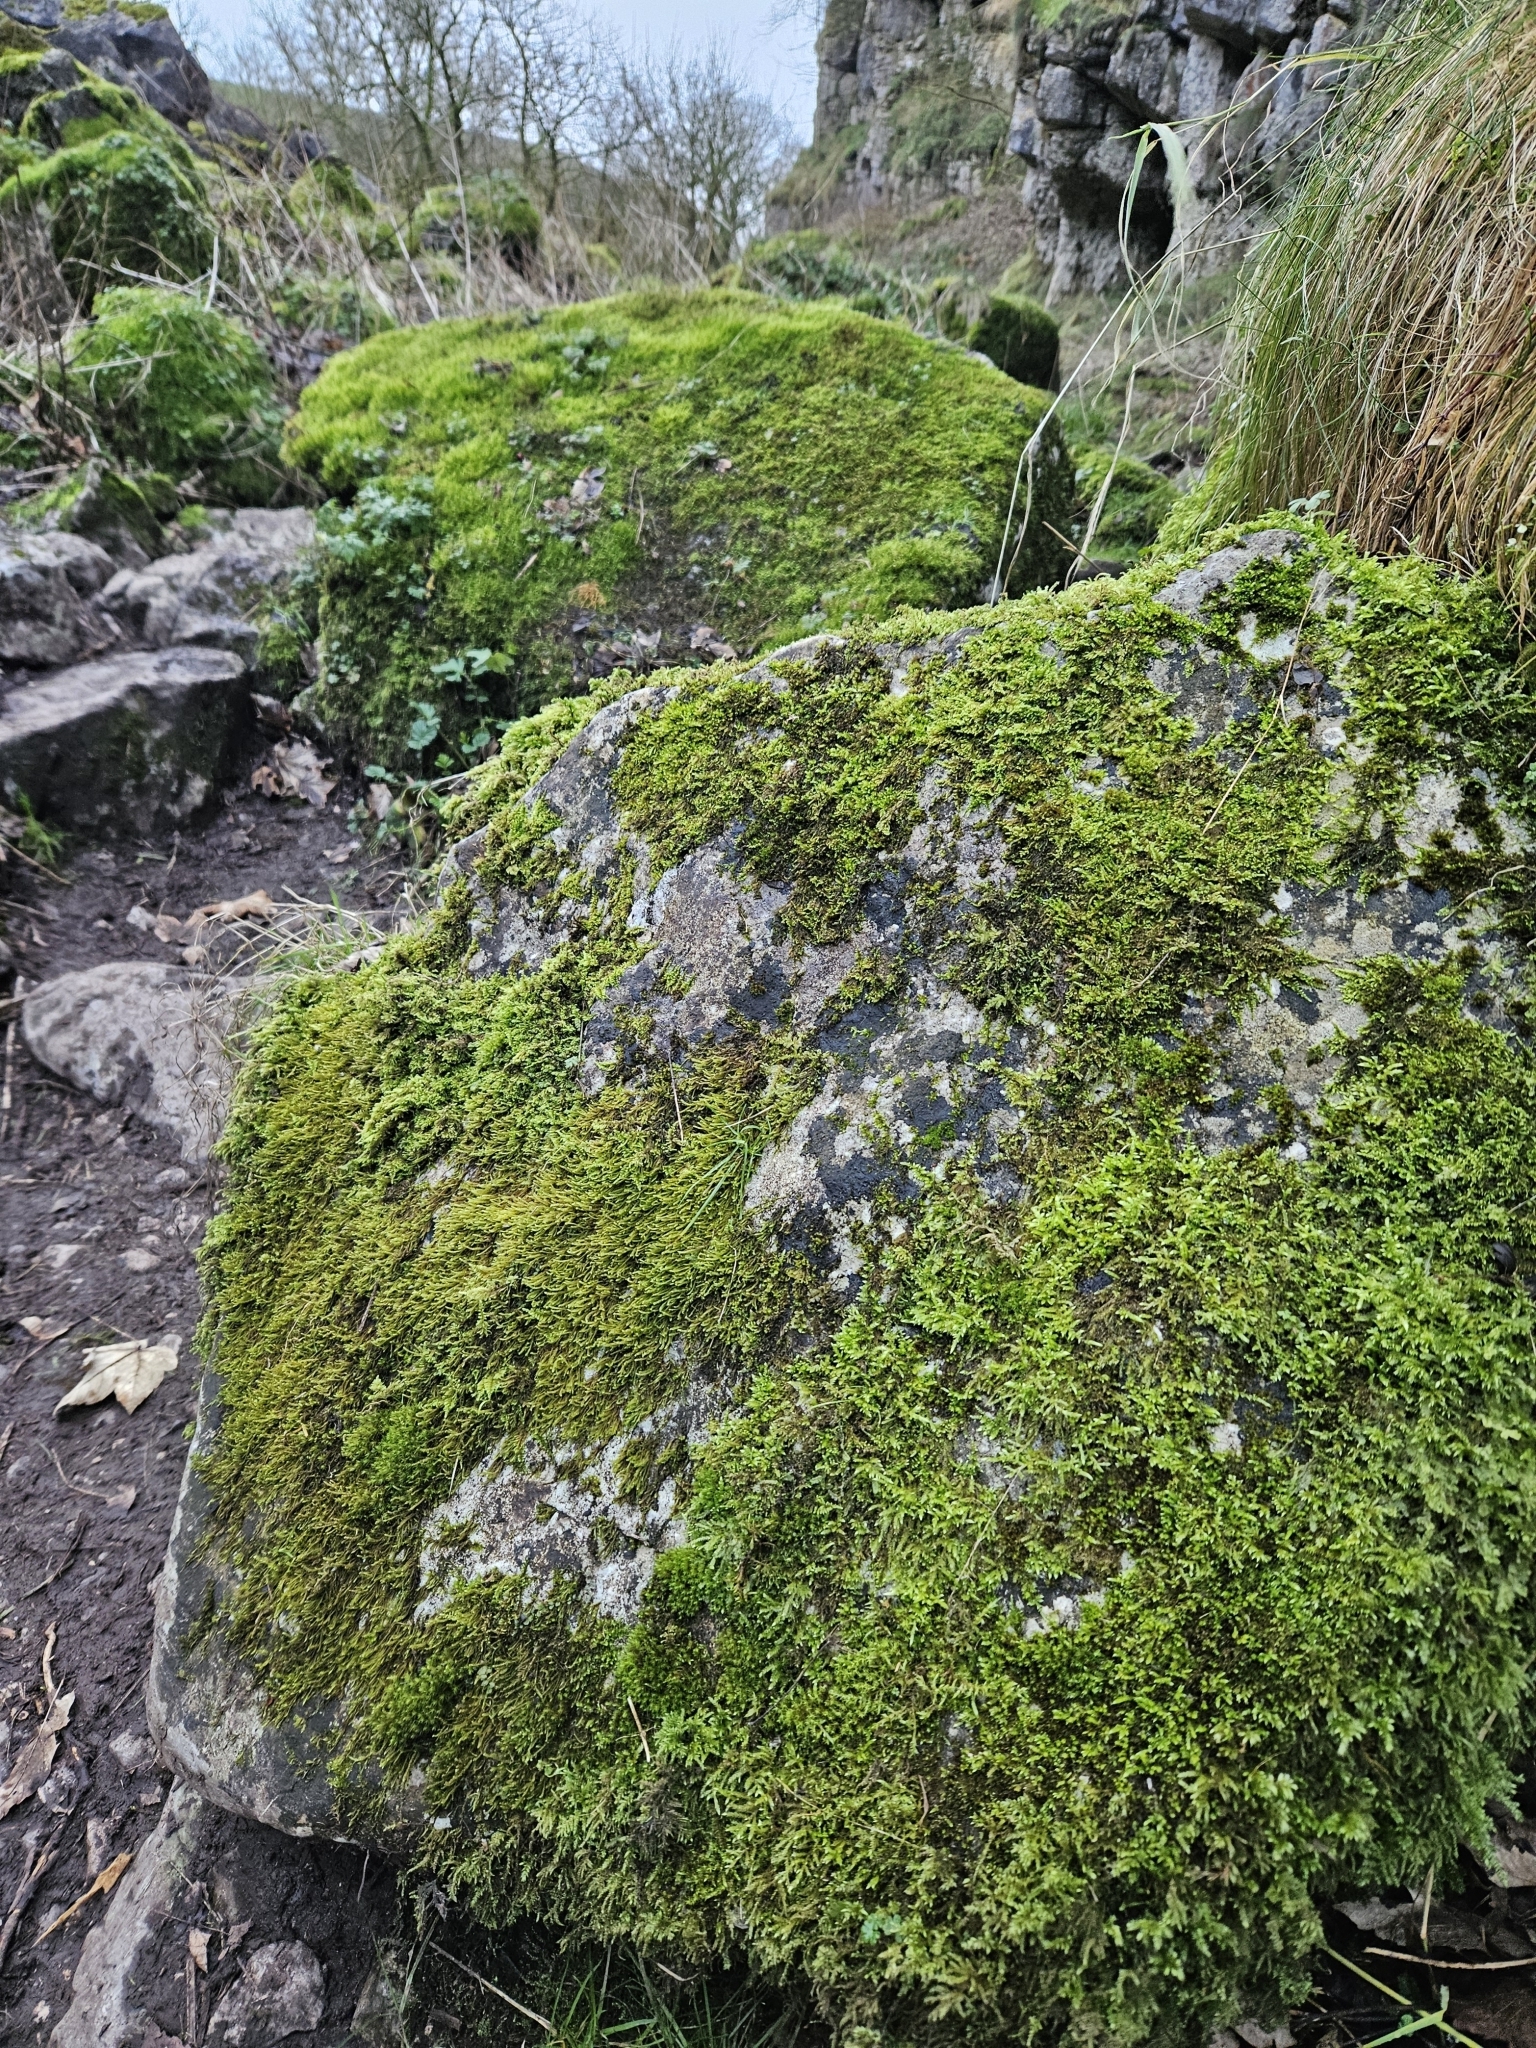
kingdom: Plantae
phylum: Bryophyta
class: Bryopsida
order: Hypnales
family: Amblystegiaceae
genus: Hygrohypnum
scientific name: Hygrohypnum luridum
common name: Drab brook moss
